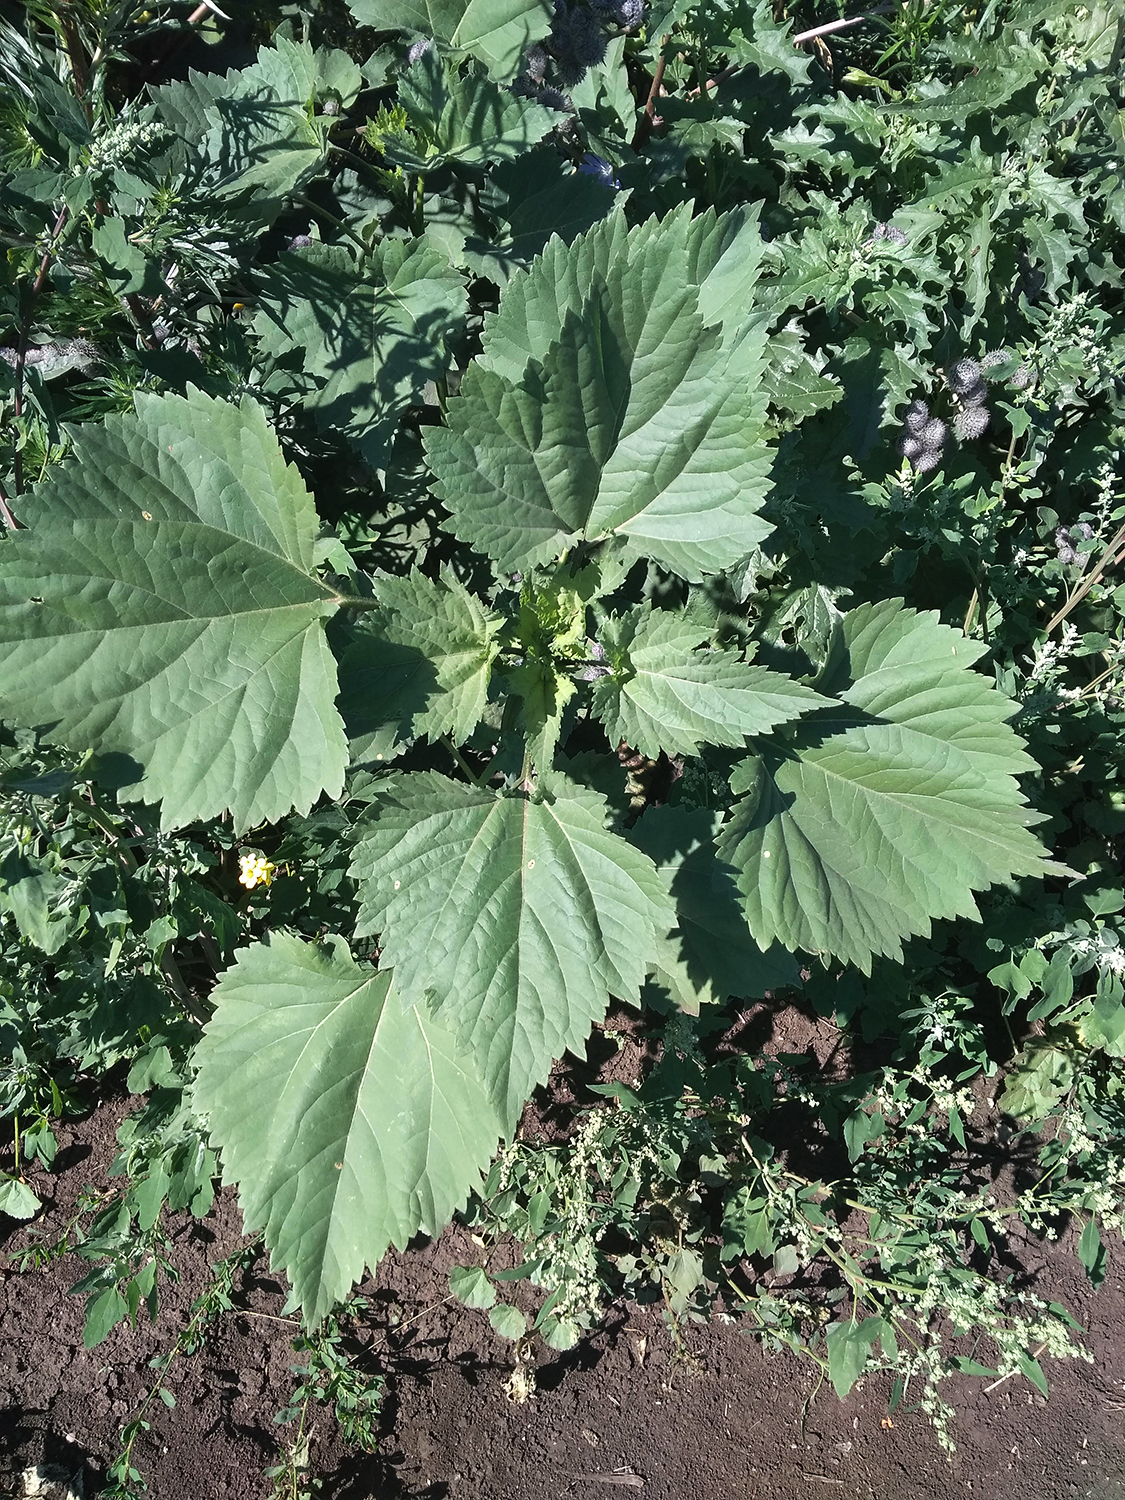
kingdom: Plantae
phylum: Tracheophyta
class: Magnoliopsida
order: Asterales
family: Asteraceae
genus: Cyclachaena
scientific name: Cyclachaena xanthiifolia
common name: Giant sumpweed
